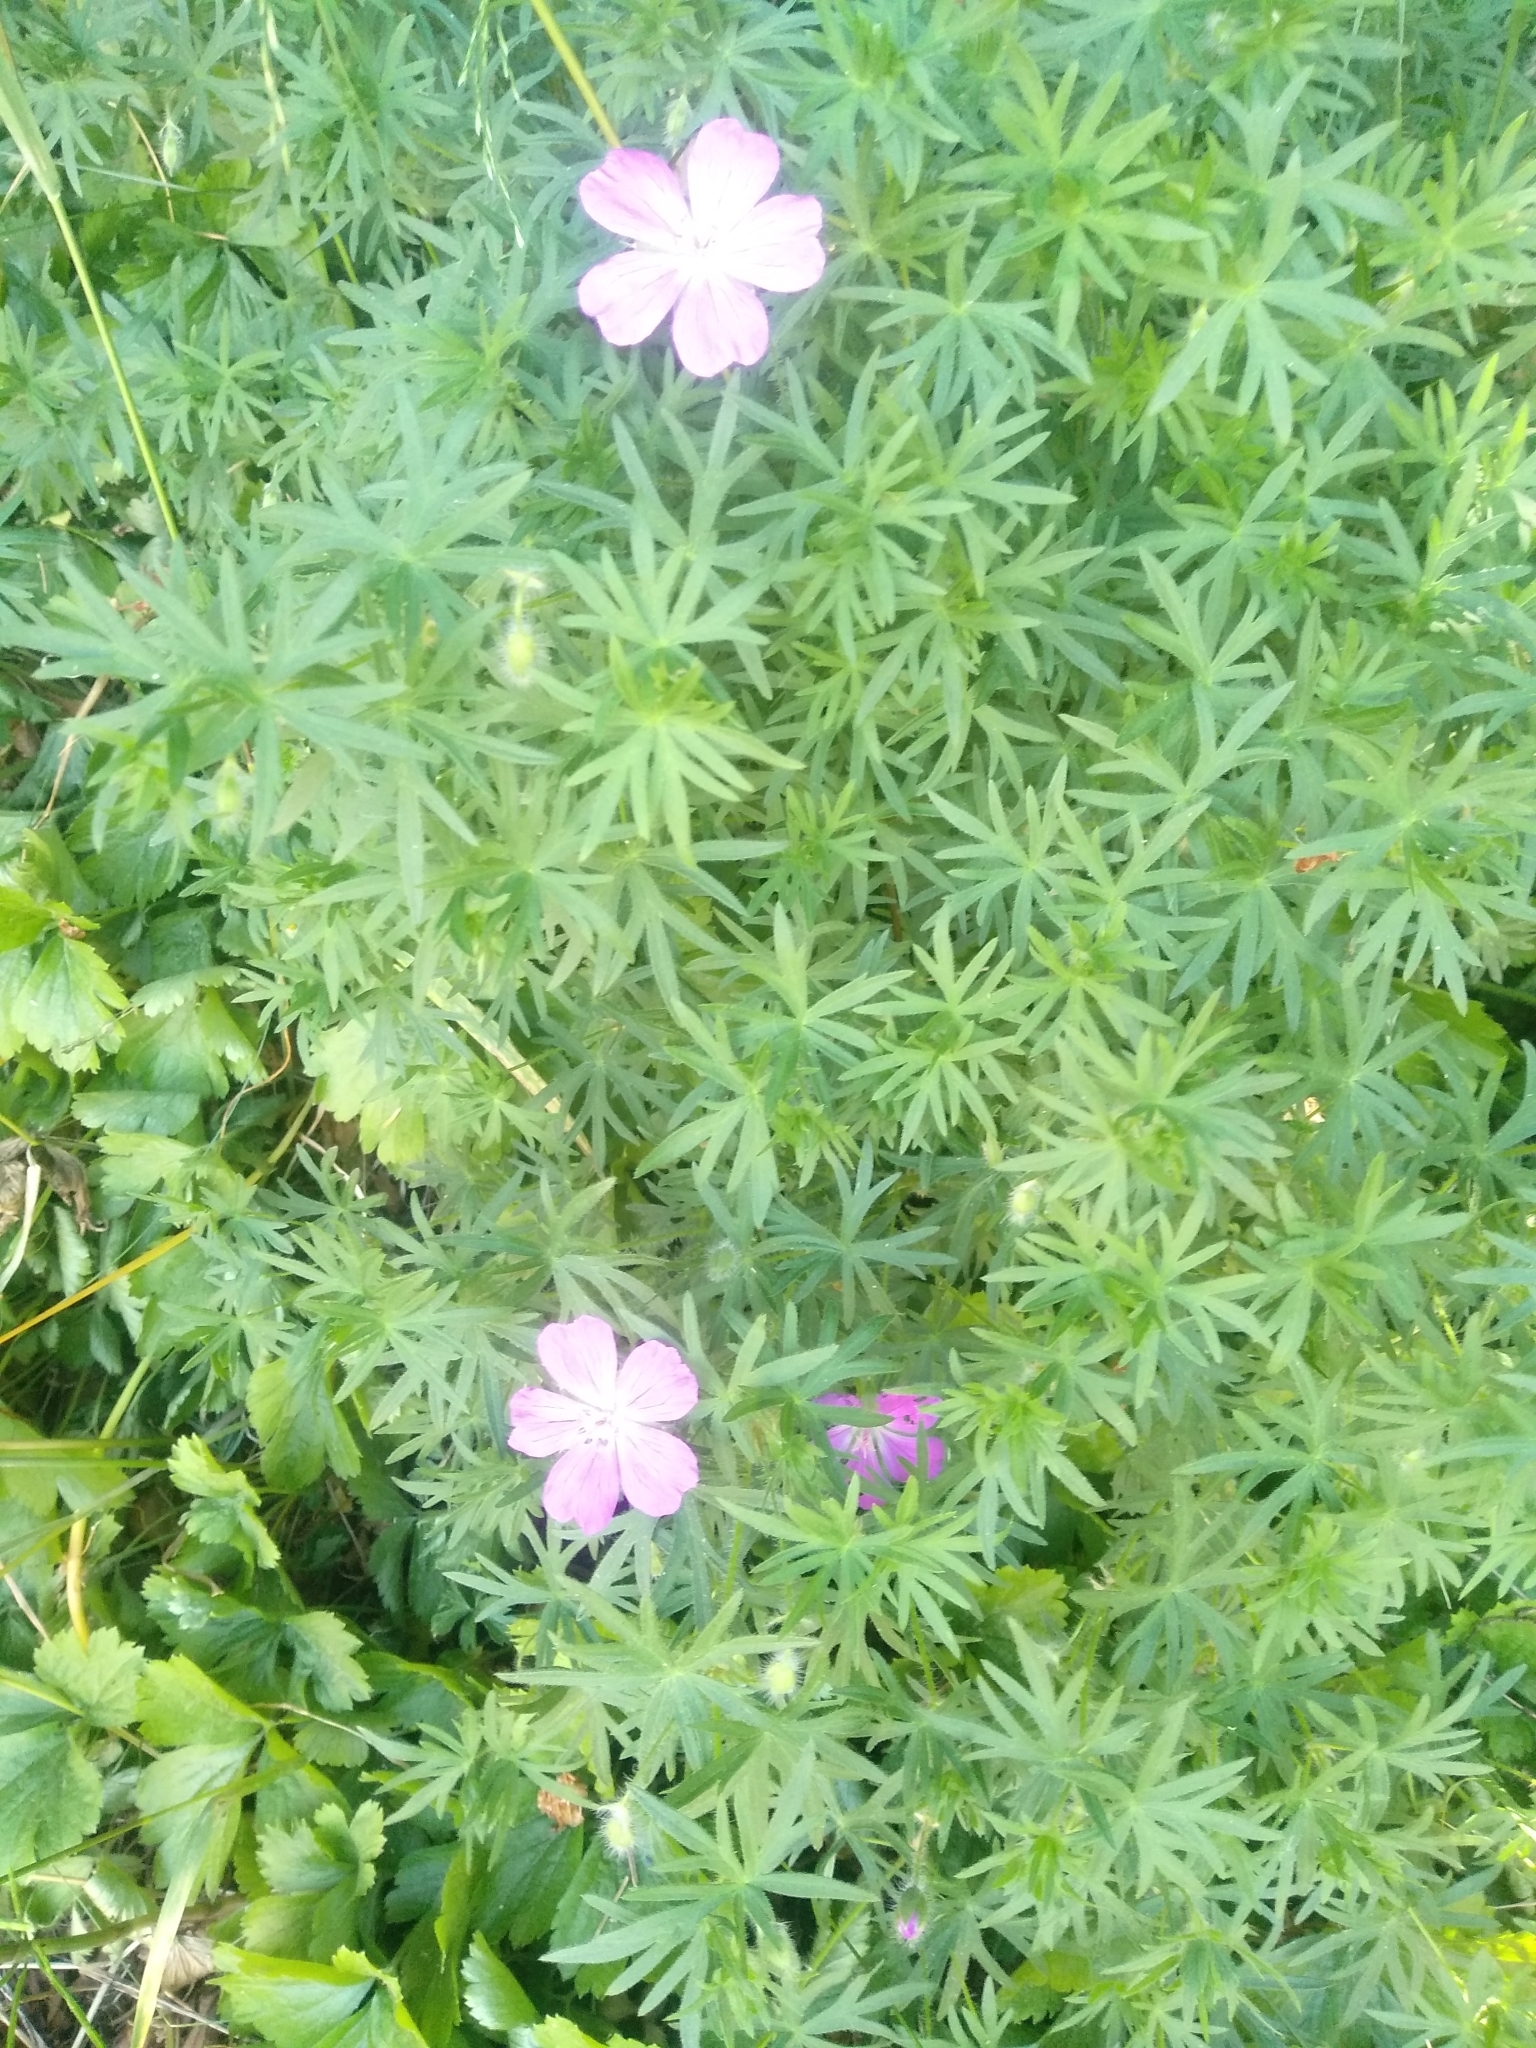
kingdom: Plantae
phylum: Tracheophyta
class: Magnoliopsida
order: Geraniales
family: Geraniaceae
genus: Geranium
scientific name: Geranium sanguineum
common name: Bloody crane's-bill
